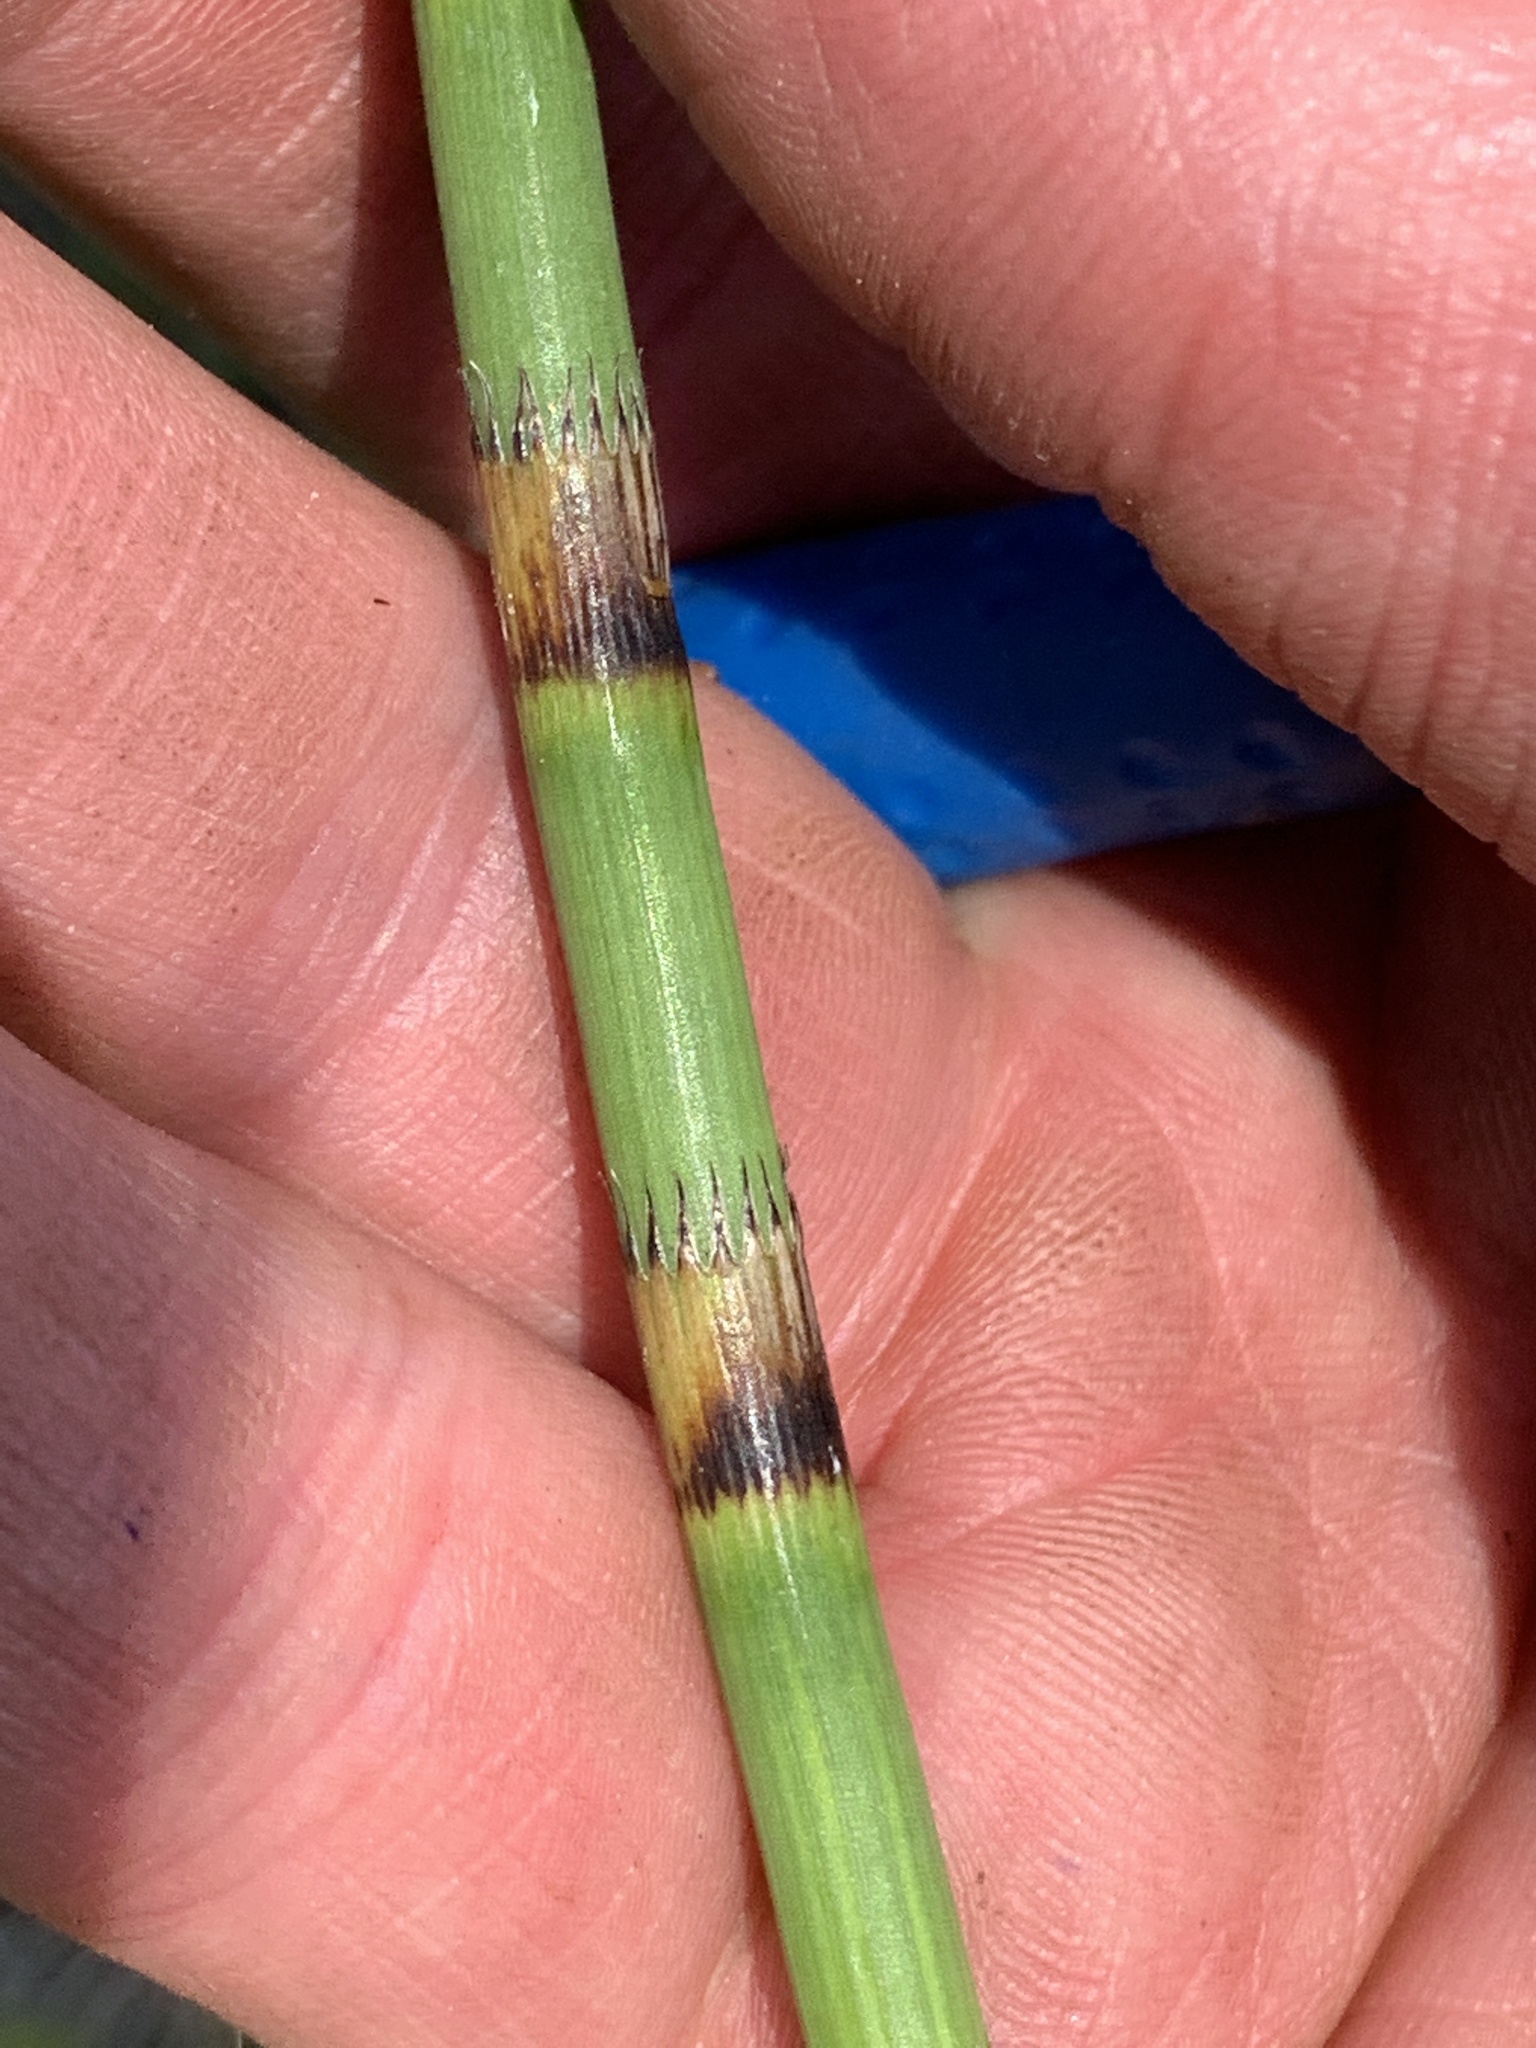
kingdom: Plantae
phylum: Tracheophyta
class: Polypodiopsida
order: Equisetales
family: Equisetaceae
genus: Equisetum
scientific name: Equisetum fluviatile
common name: Water horsetail
